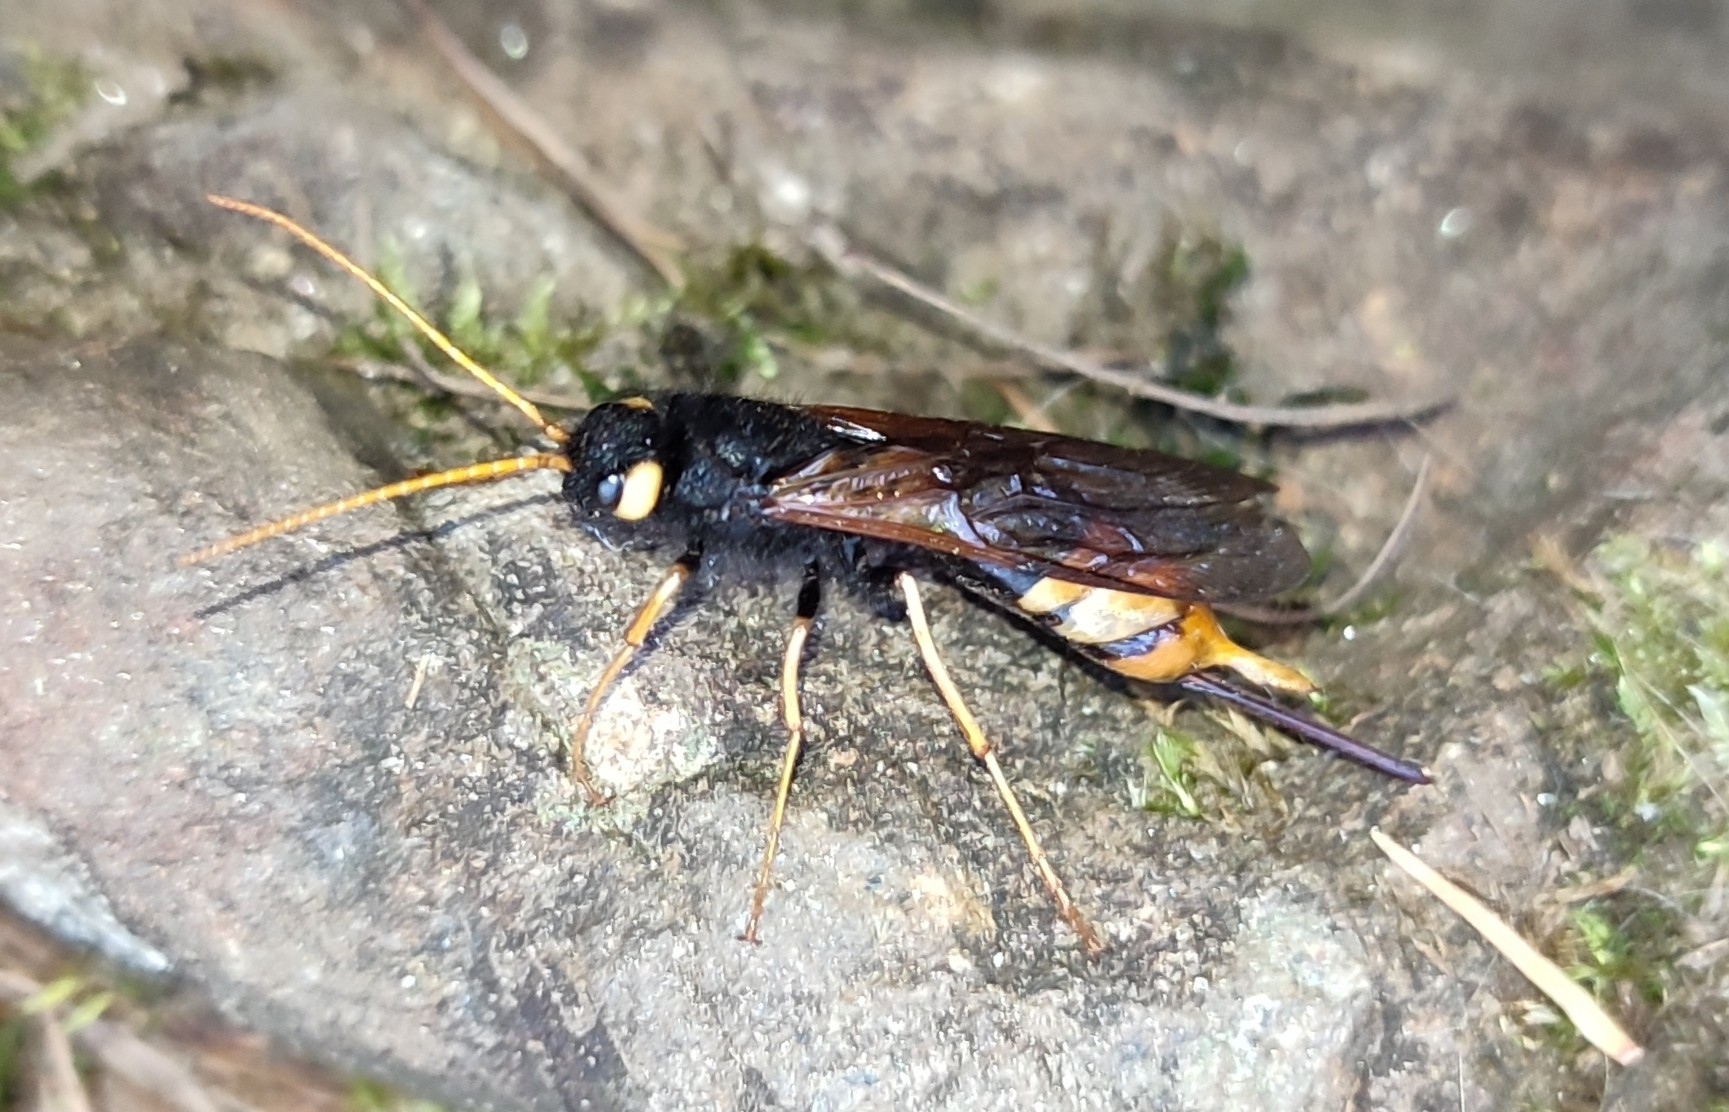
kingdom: Animalia
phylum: Arthropoda
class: Insecta
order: Hymenoptera
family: Siricidae
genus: Urocerus
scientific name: Urocerus gigas
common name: Giant woodwasp
